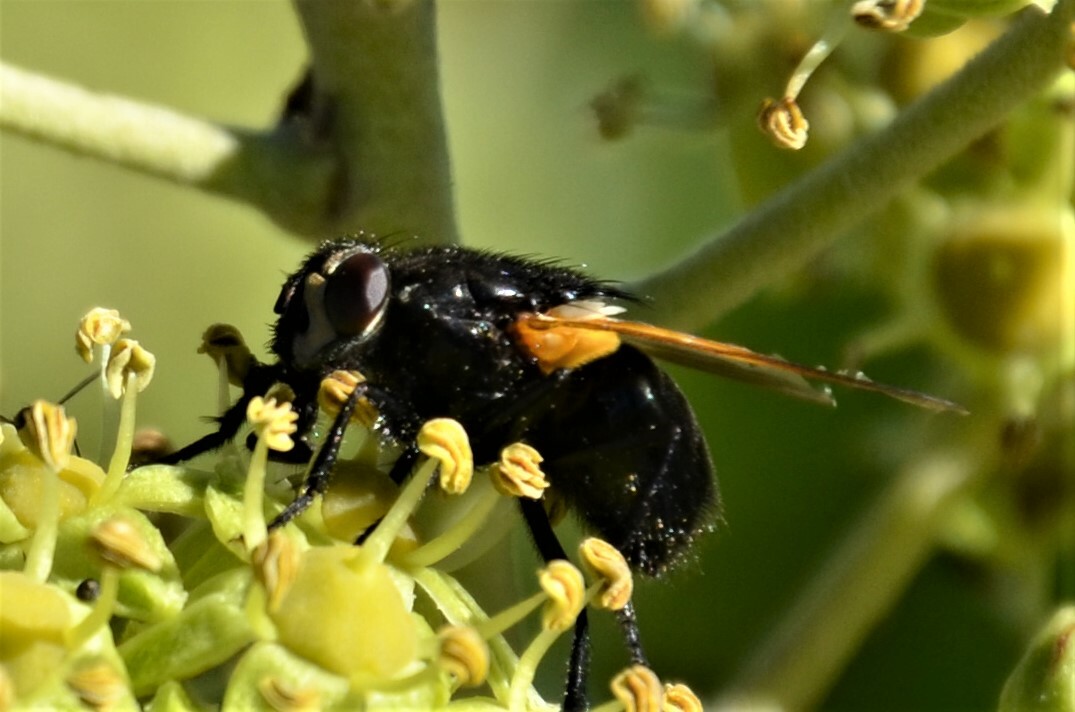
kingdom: Animalia
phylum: Arthropoda
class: Insecta
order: Diptera
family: Muscidae
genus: Mesembrina
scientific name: Mesembrina meridiana
